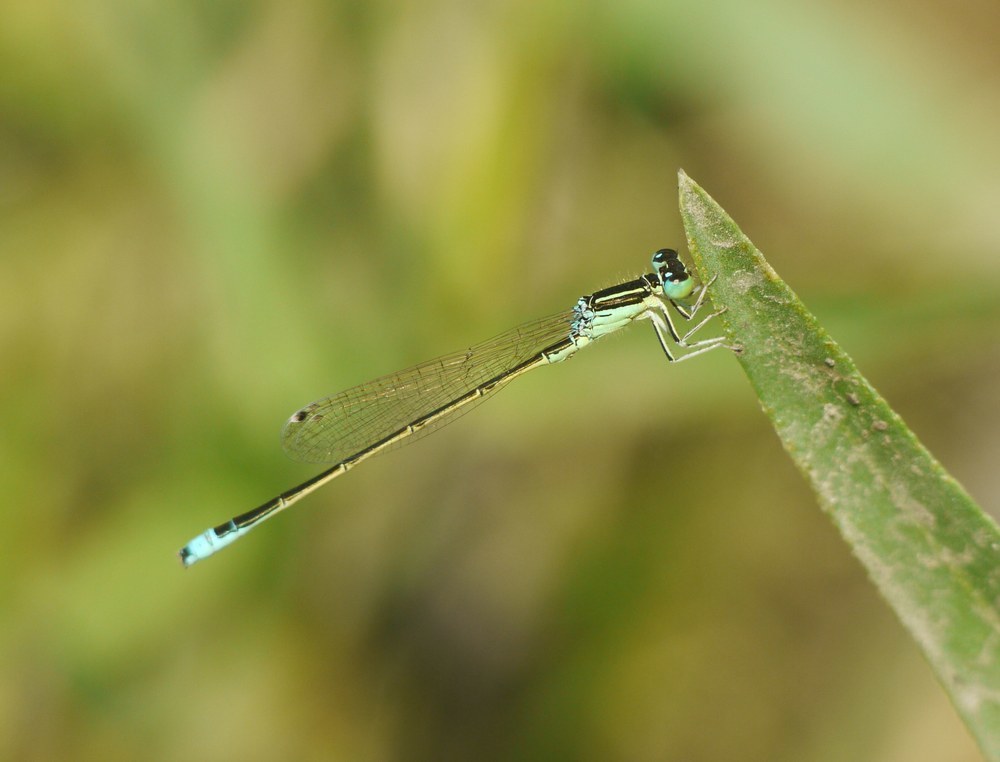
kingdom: Animalia
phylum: Arthropoda
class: Insecta
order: Odonata
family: Coenagrionidae
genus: Ischnura
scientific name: Ischnura pumilio
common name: Scarce blue-tailed damselfly
